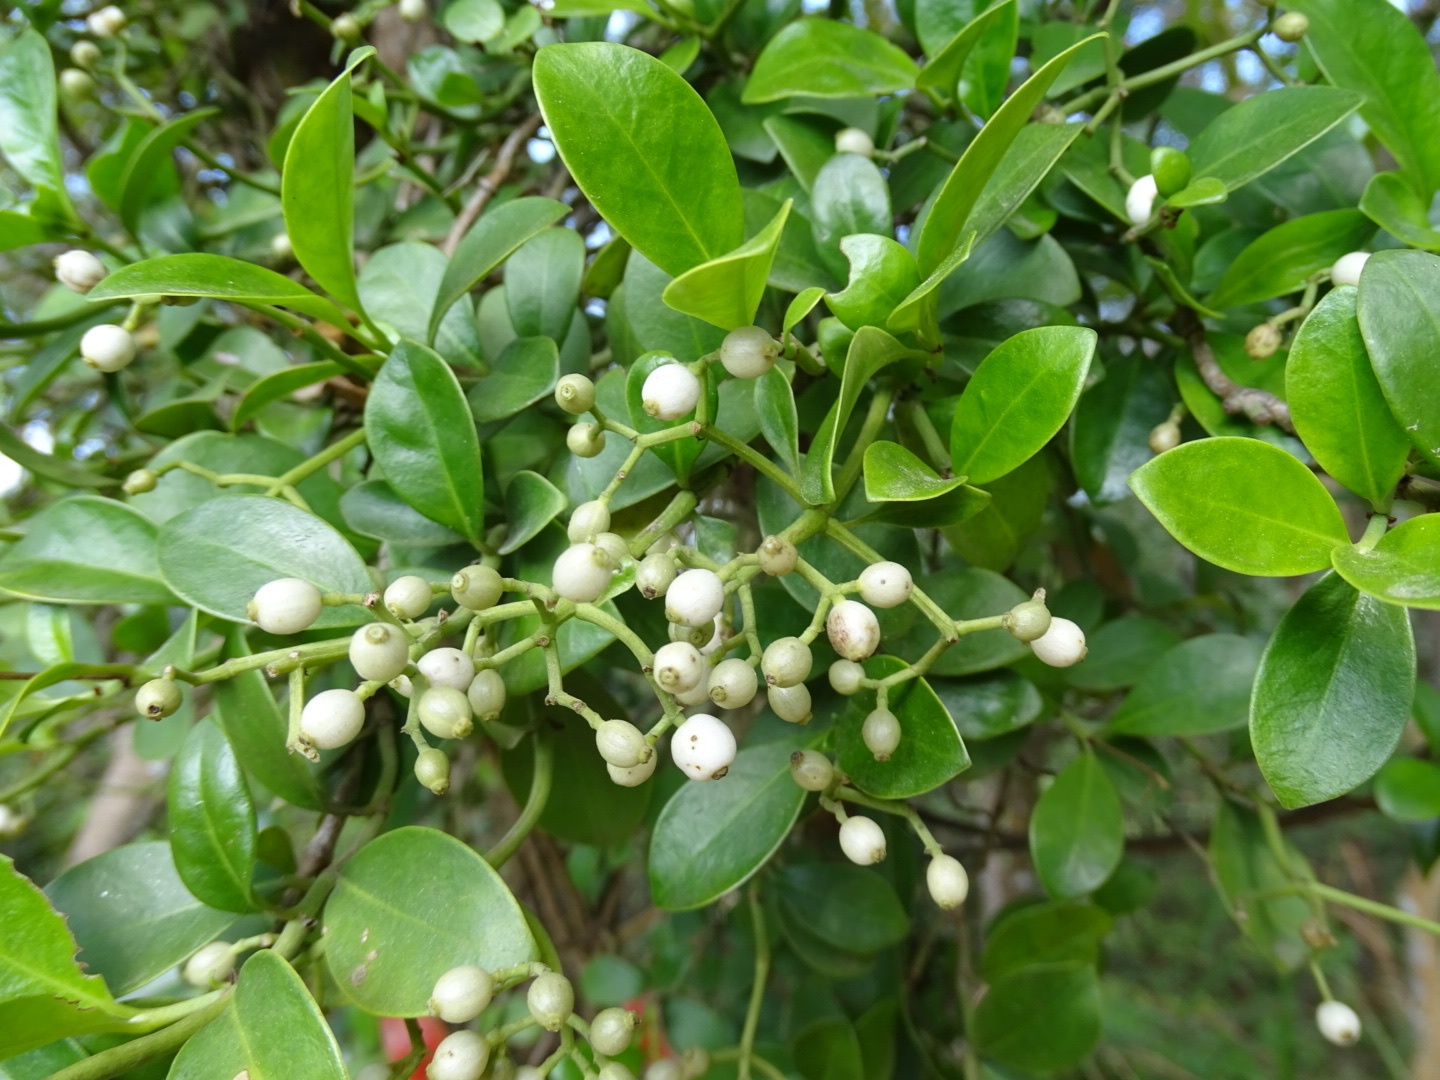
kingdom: Plantae
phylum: Tracheophyta
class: Magnoliopsida
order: Gentianales
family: Rubiaceae
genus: Psychotria
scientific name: Psychotria serpens
